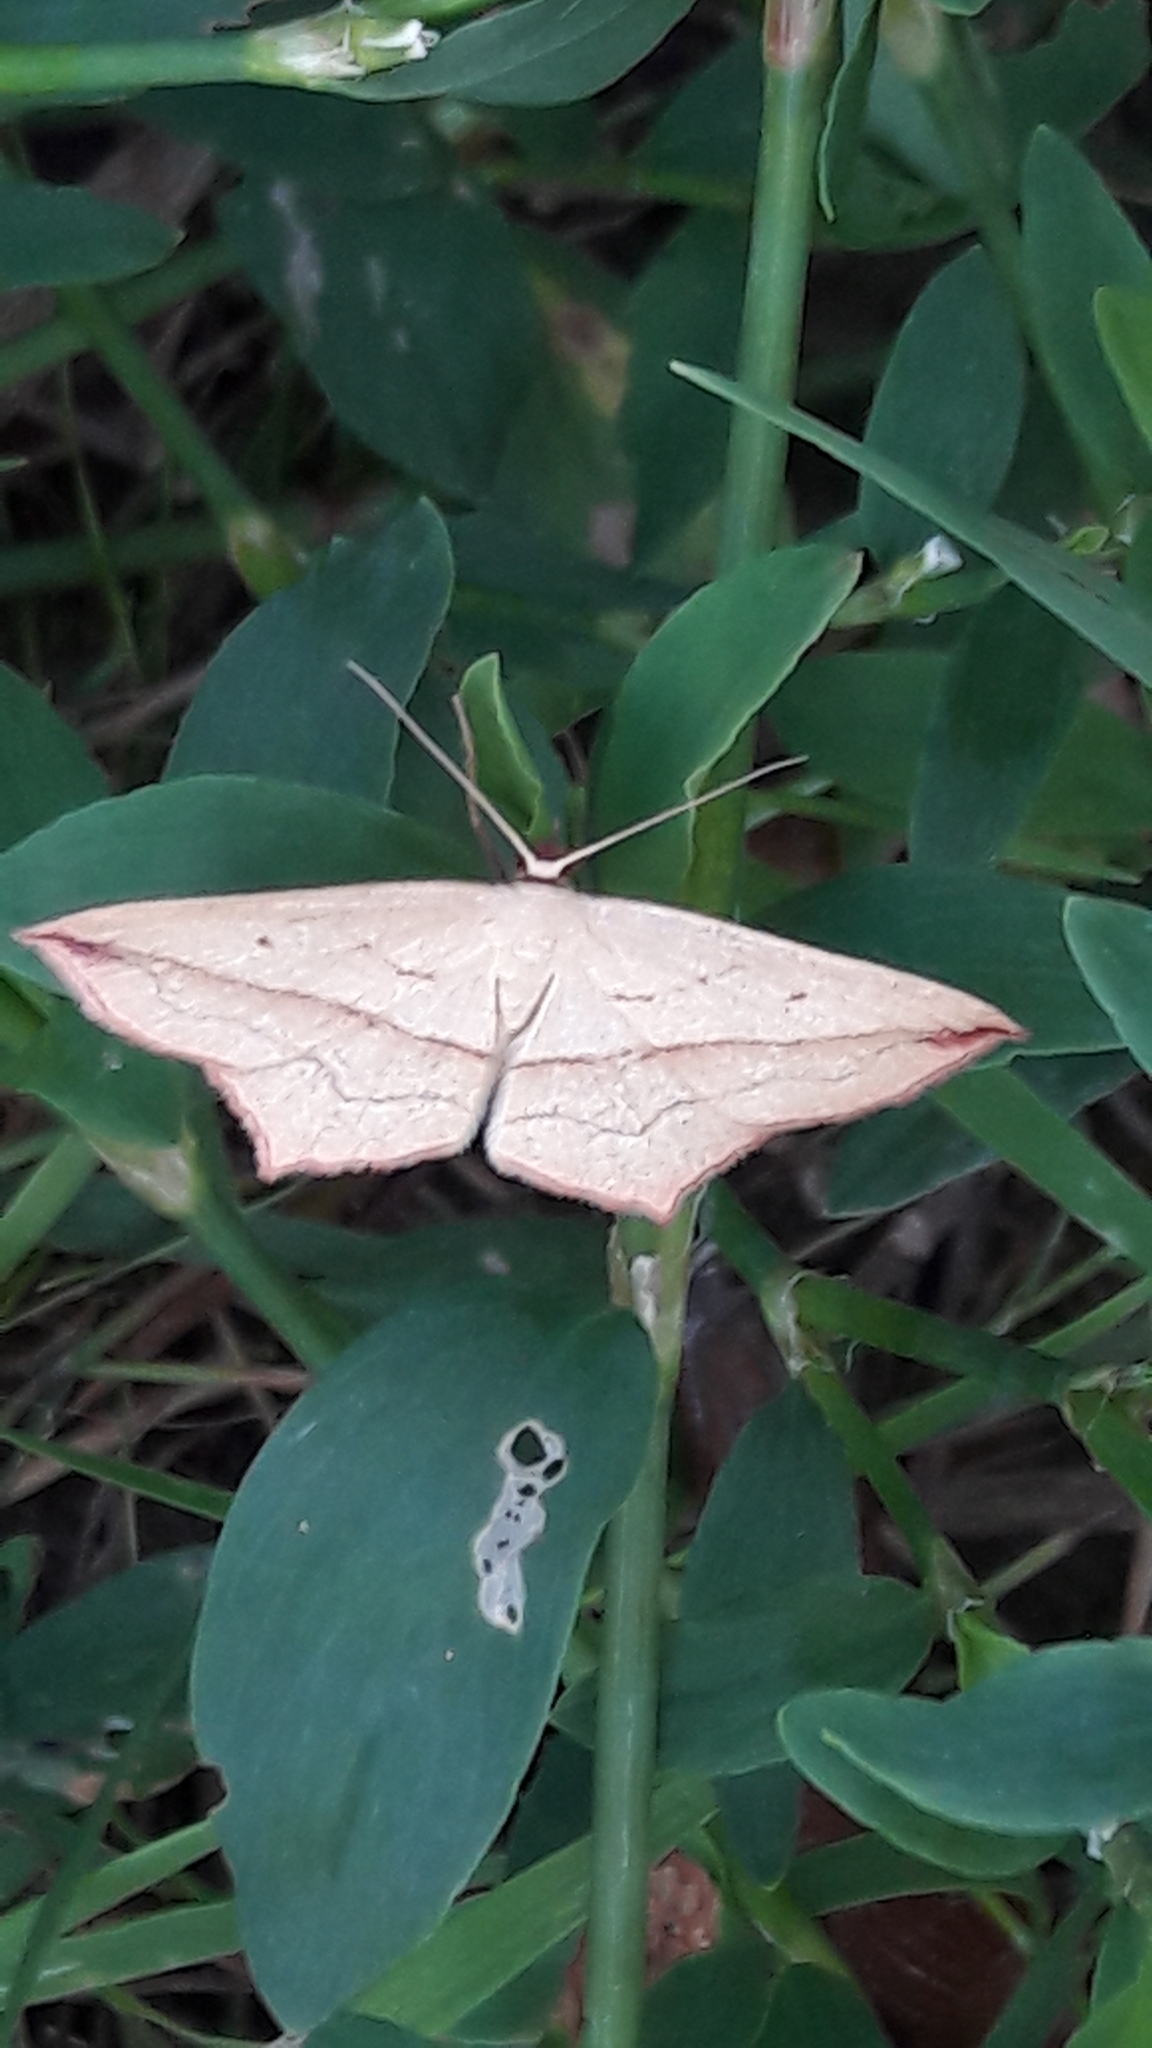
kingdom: Animalia
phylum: Arthropoda
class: Insecta
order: Lepidoptera
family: Geometridae
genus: Timandra
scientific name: Timandra comae
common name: Blood-vein
